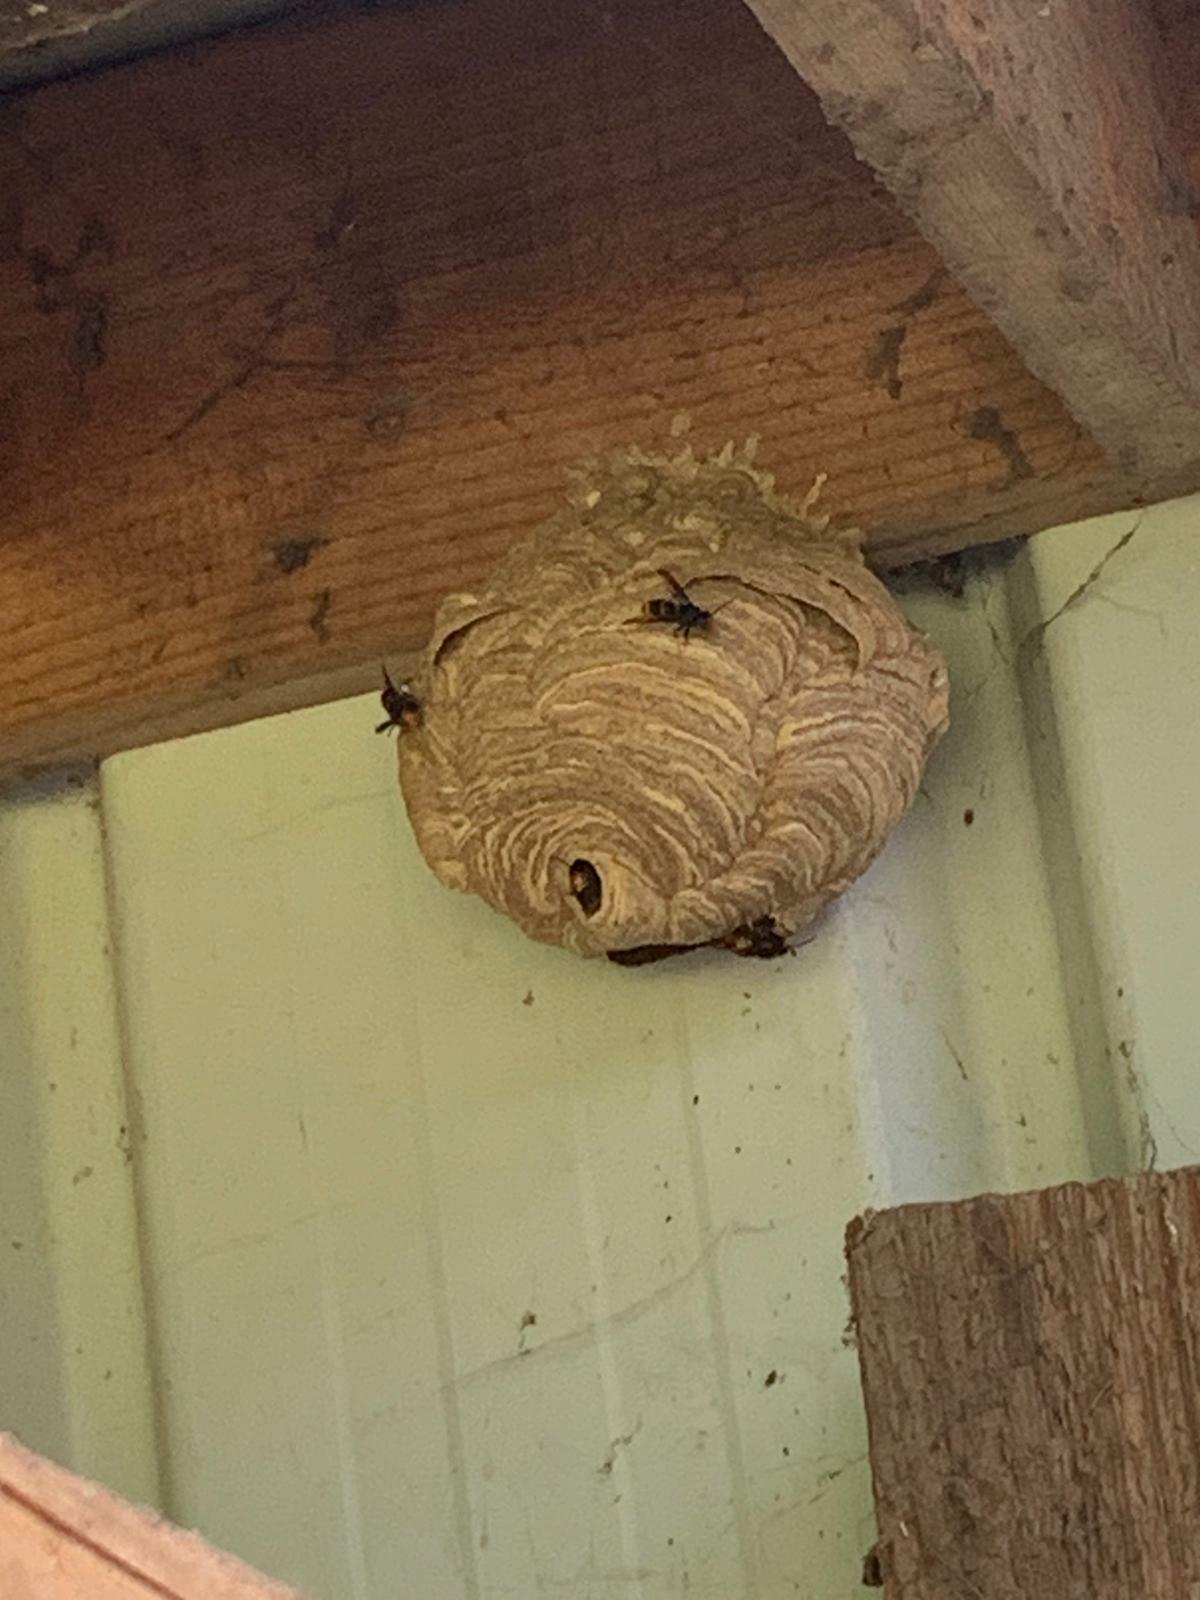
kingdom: Animalia
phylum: Arthropoda
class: Insecta
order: Hymenoptera
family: Vespidae
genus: Vespa
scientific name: Vespa velutina
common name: Asian hornet
